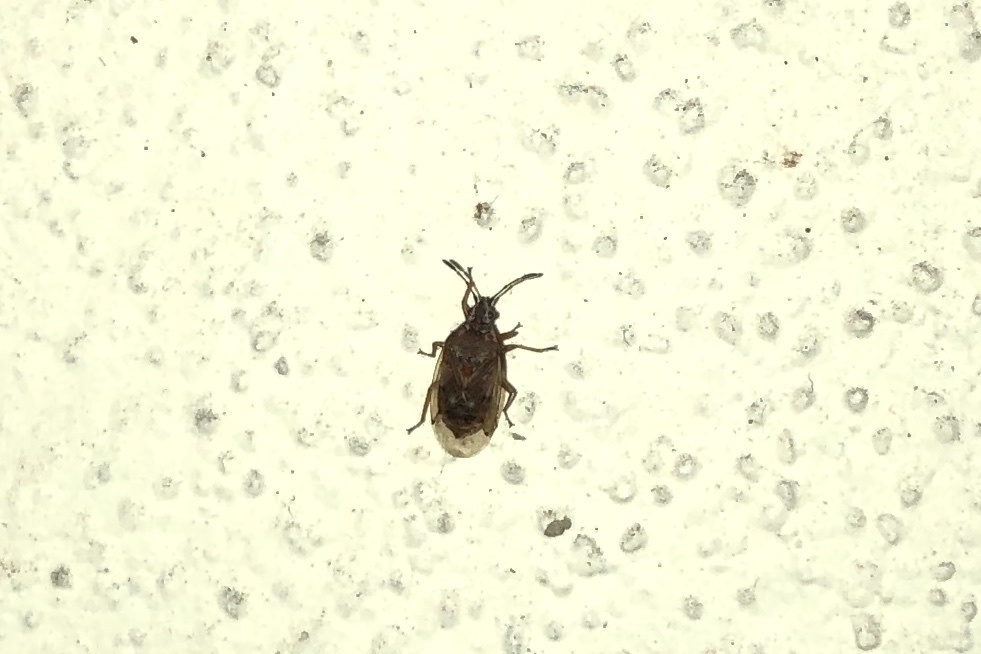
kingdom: Animalia
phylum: Arthropoda
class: Insecta
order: Hemiptera
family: Lygaeidae
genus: Kleidocerys
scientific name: Kleidocerys resedae
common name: Birch catkin bug
